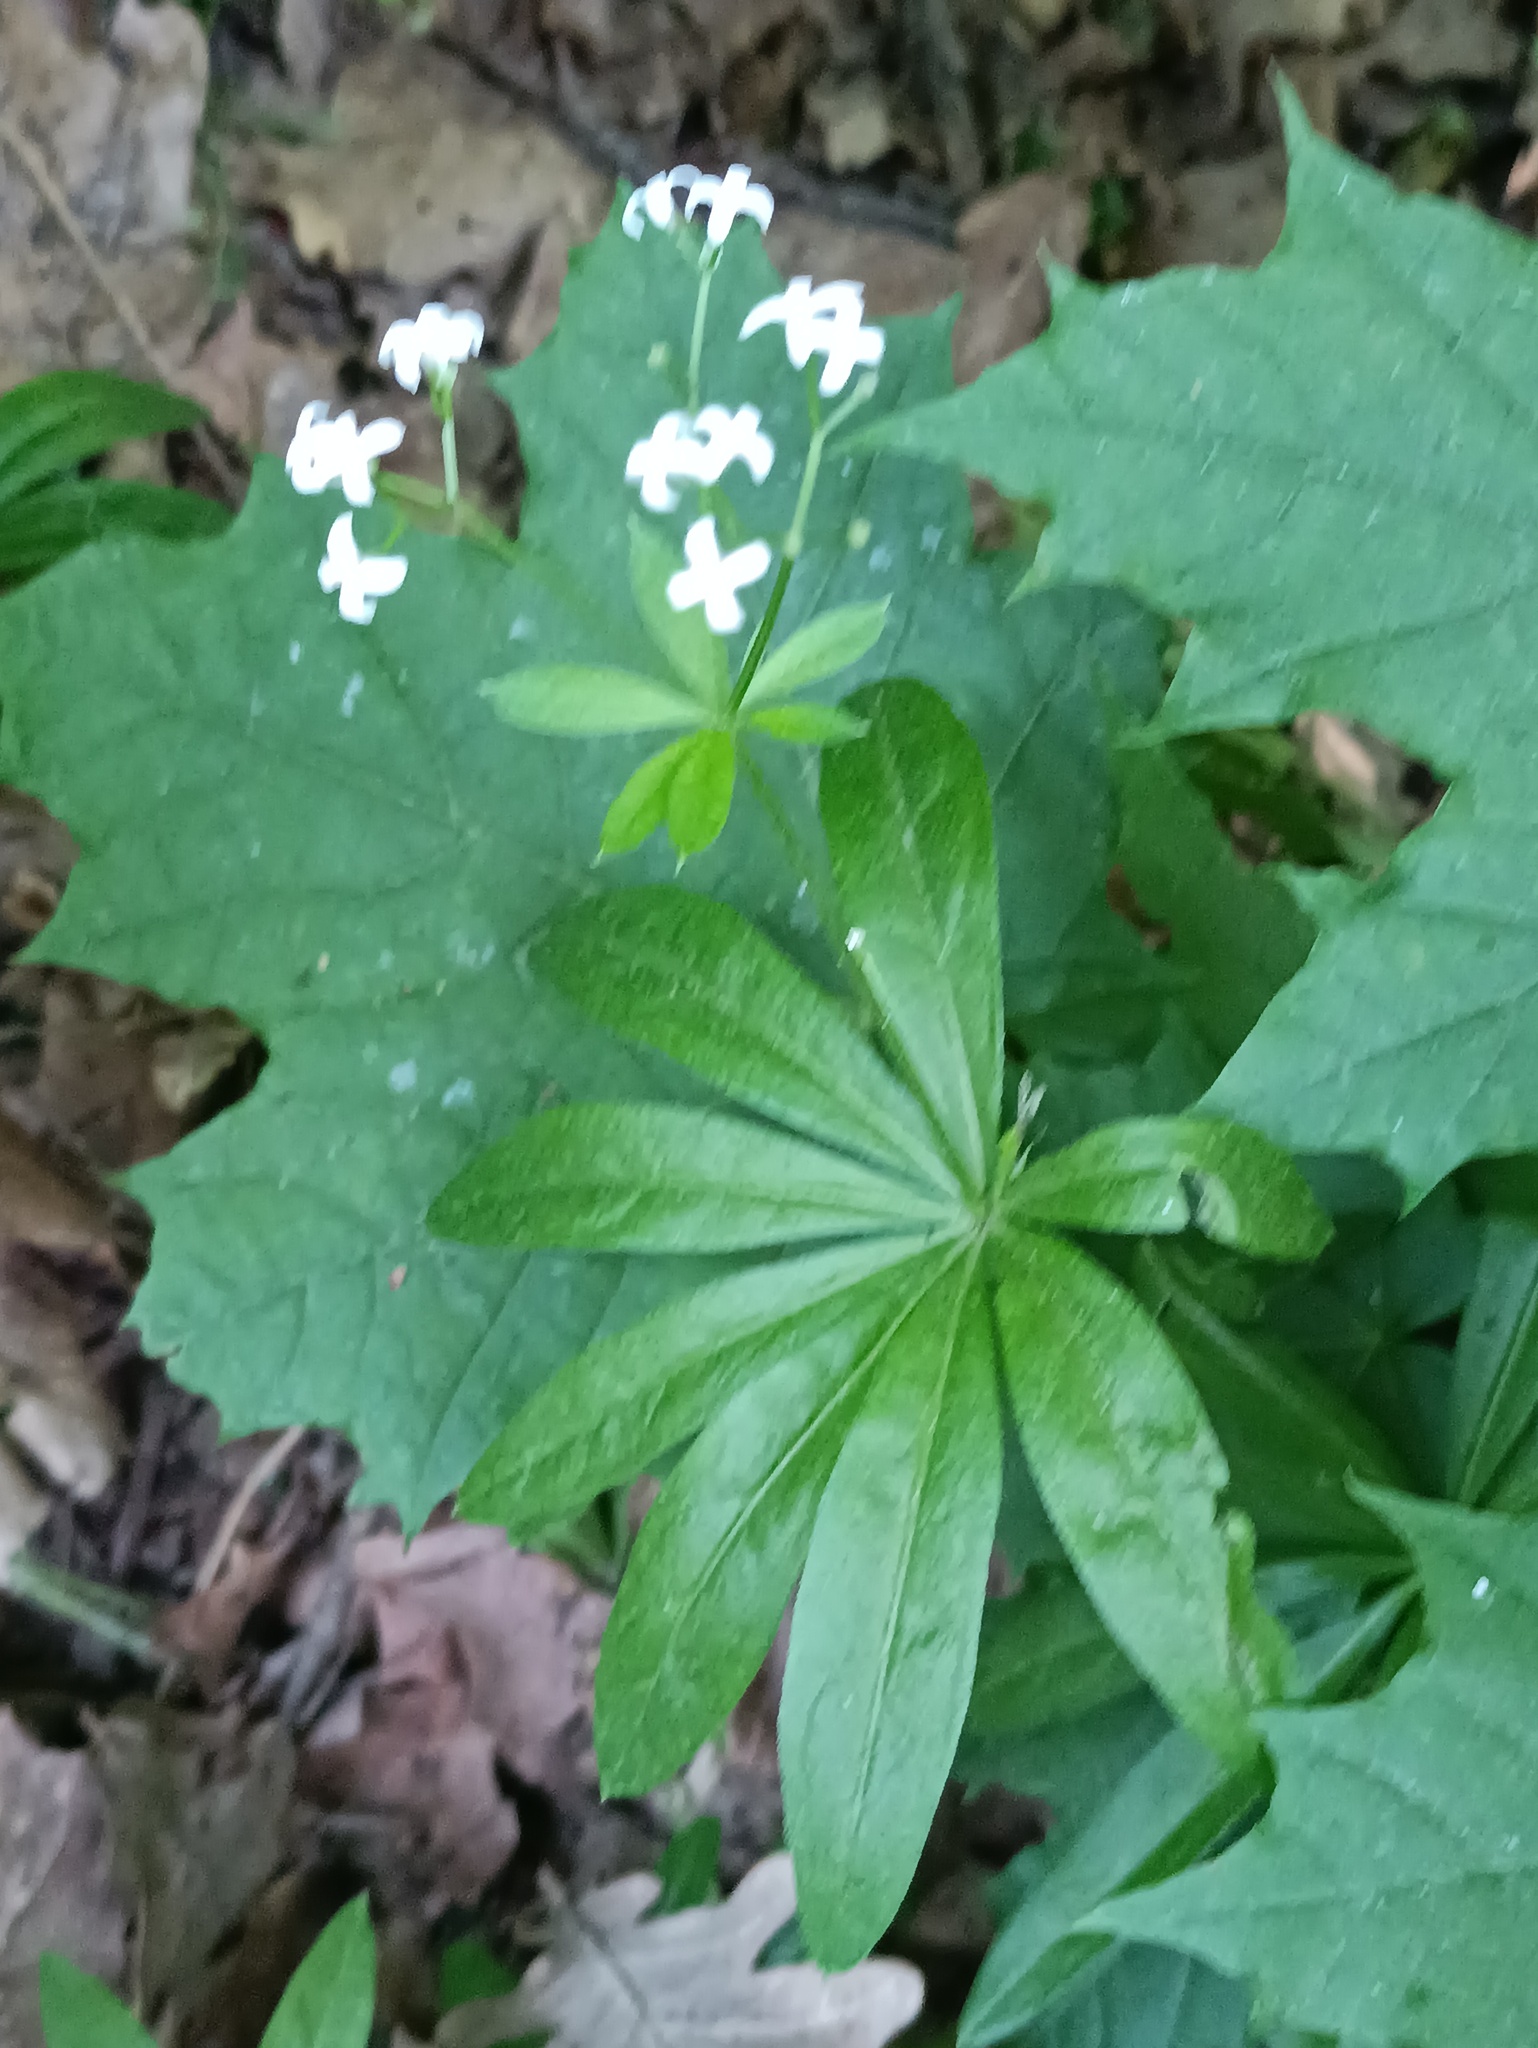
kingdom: Plantae
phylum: Tracheophyta
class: Magnoliopsida
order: Gentianales
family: Rubiaceae
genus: Galium
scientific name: Galium odoratum
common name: Sweet woodruff
